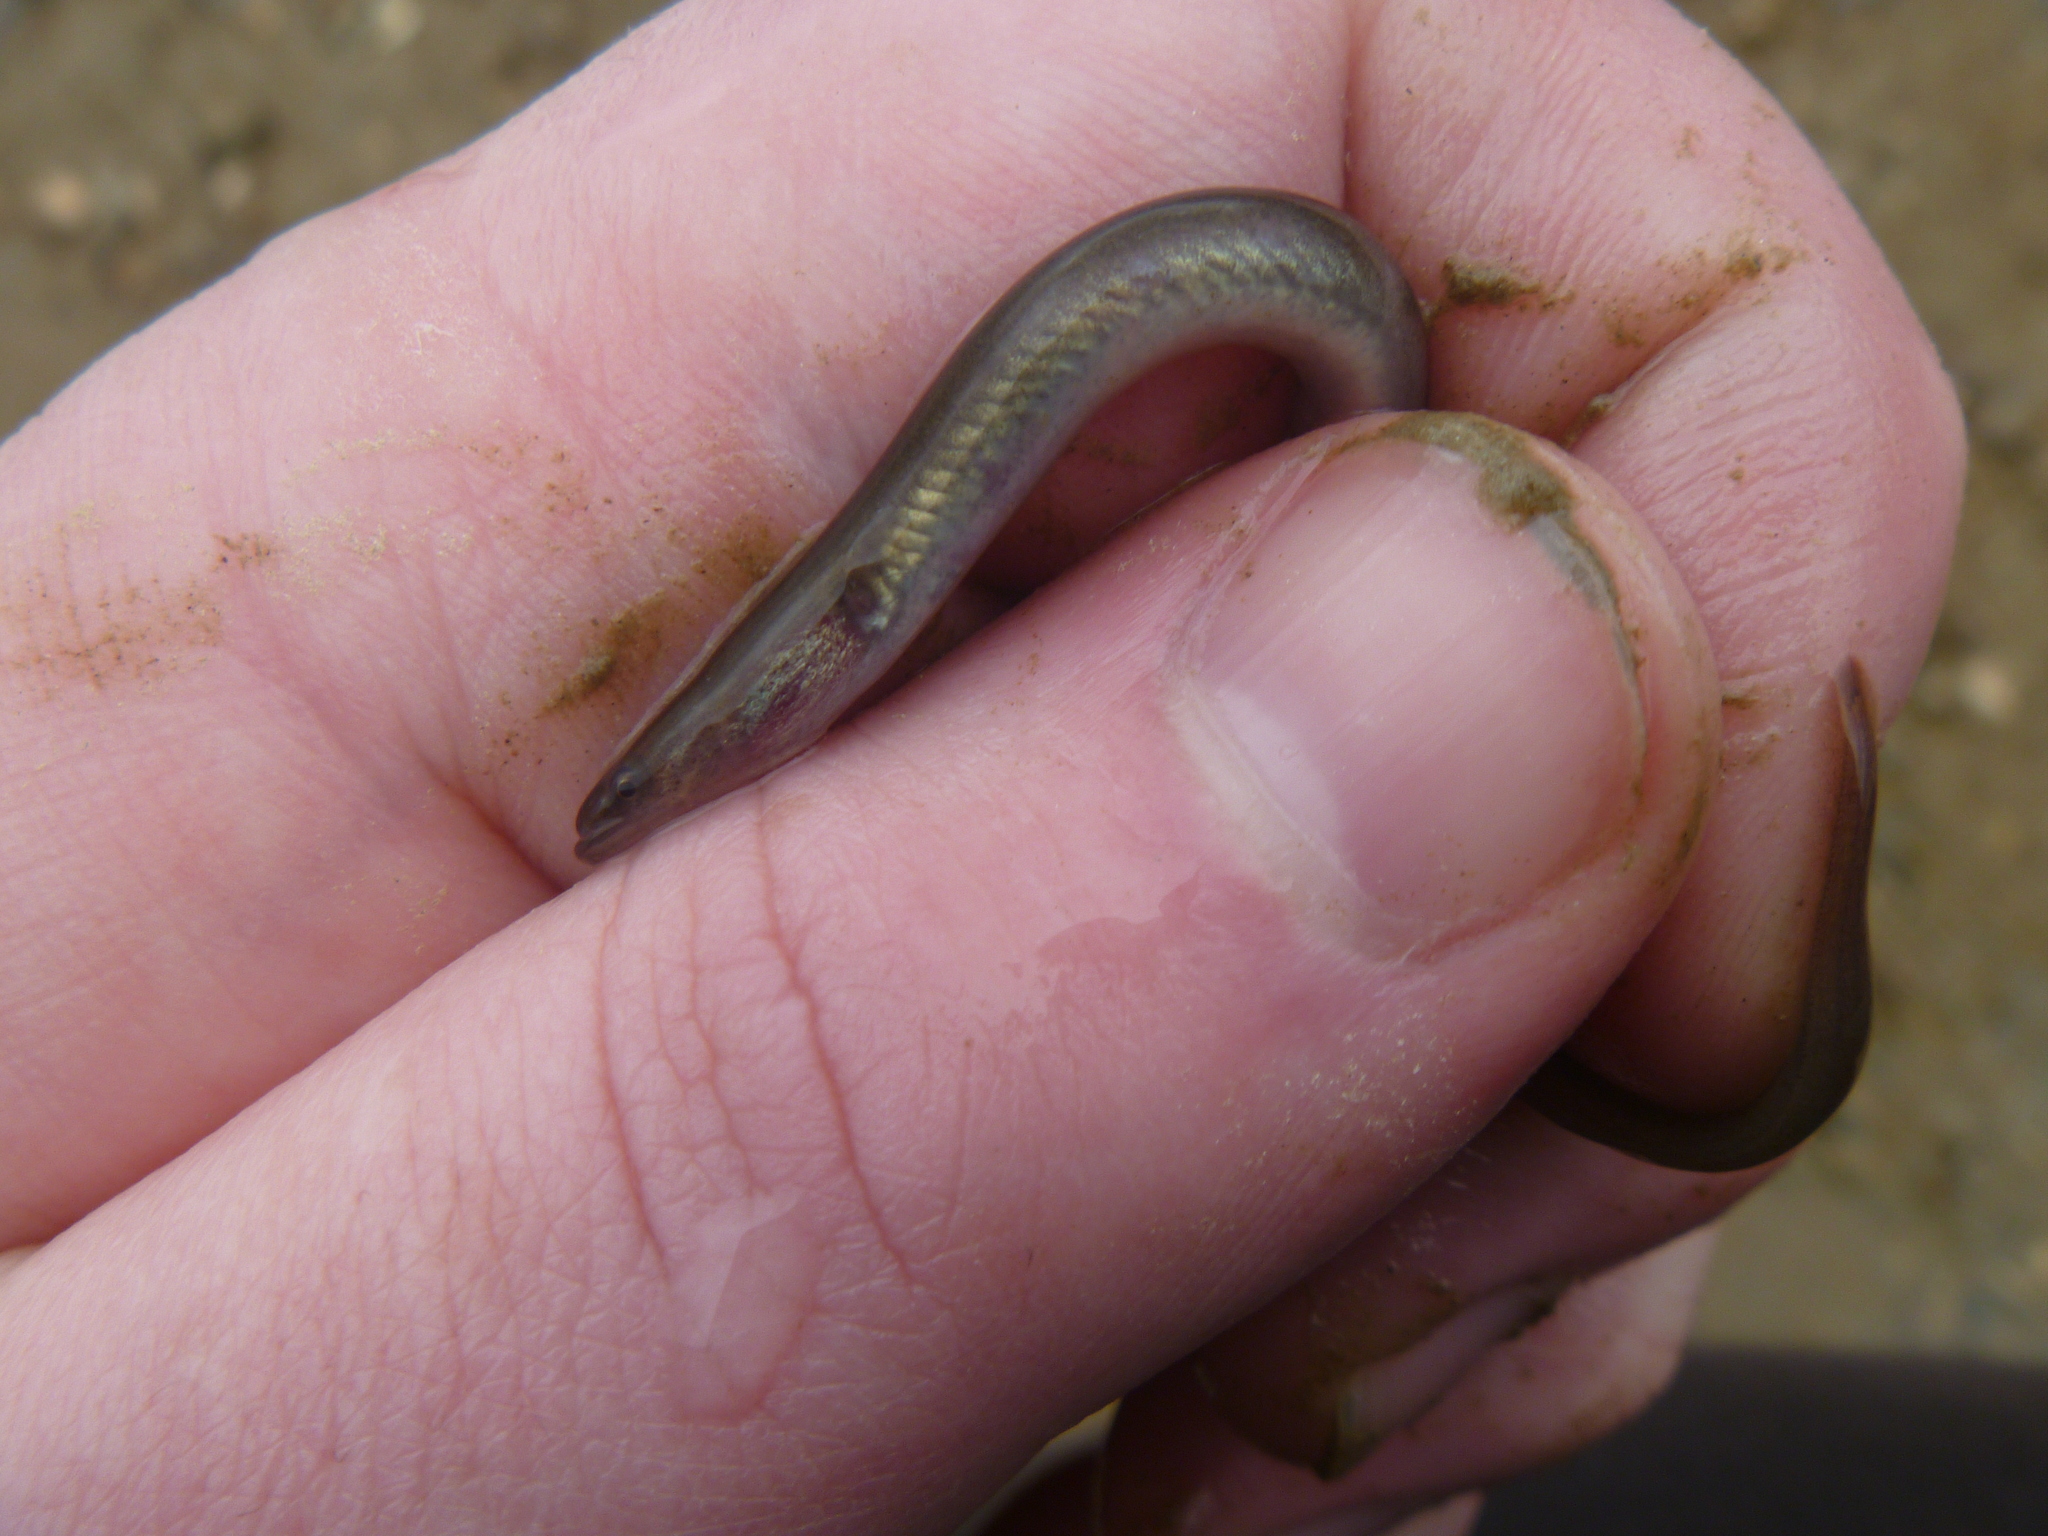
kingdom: Animalia
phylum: Chordata
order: Anguilliformes
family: Anguillidae
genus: Anguilla
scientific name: Anguilla australis
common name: Shortfin eel
